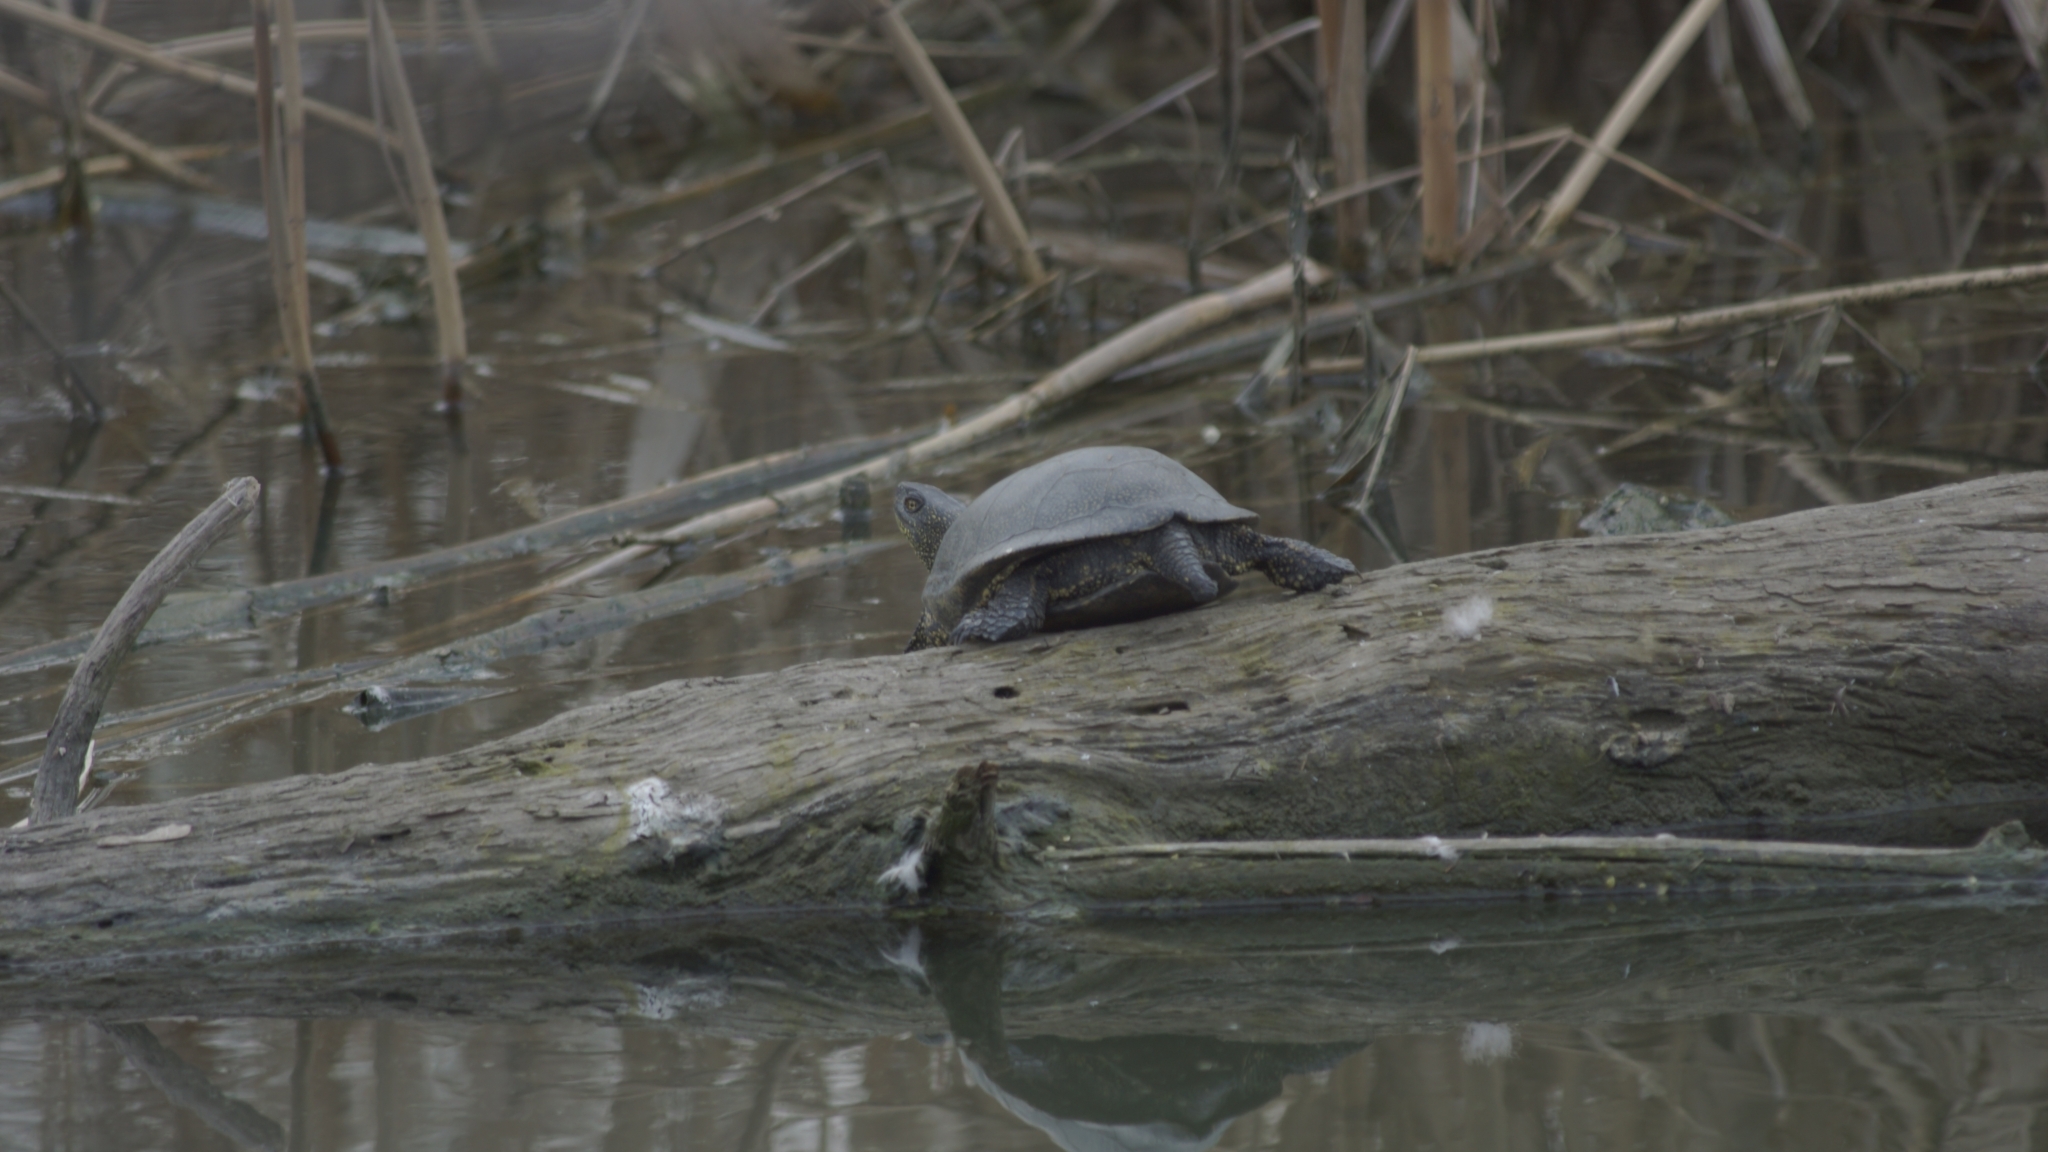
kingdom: Animalia
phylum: Chordata
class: Testudines
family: Emydidae
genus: Emys
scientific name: Emys orbicularis
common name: European pond turtle
